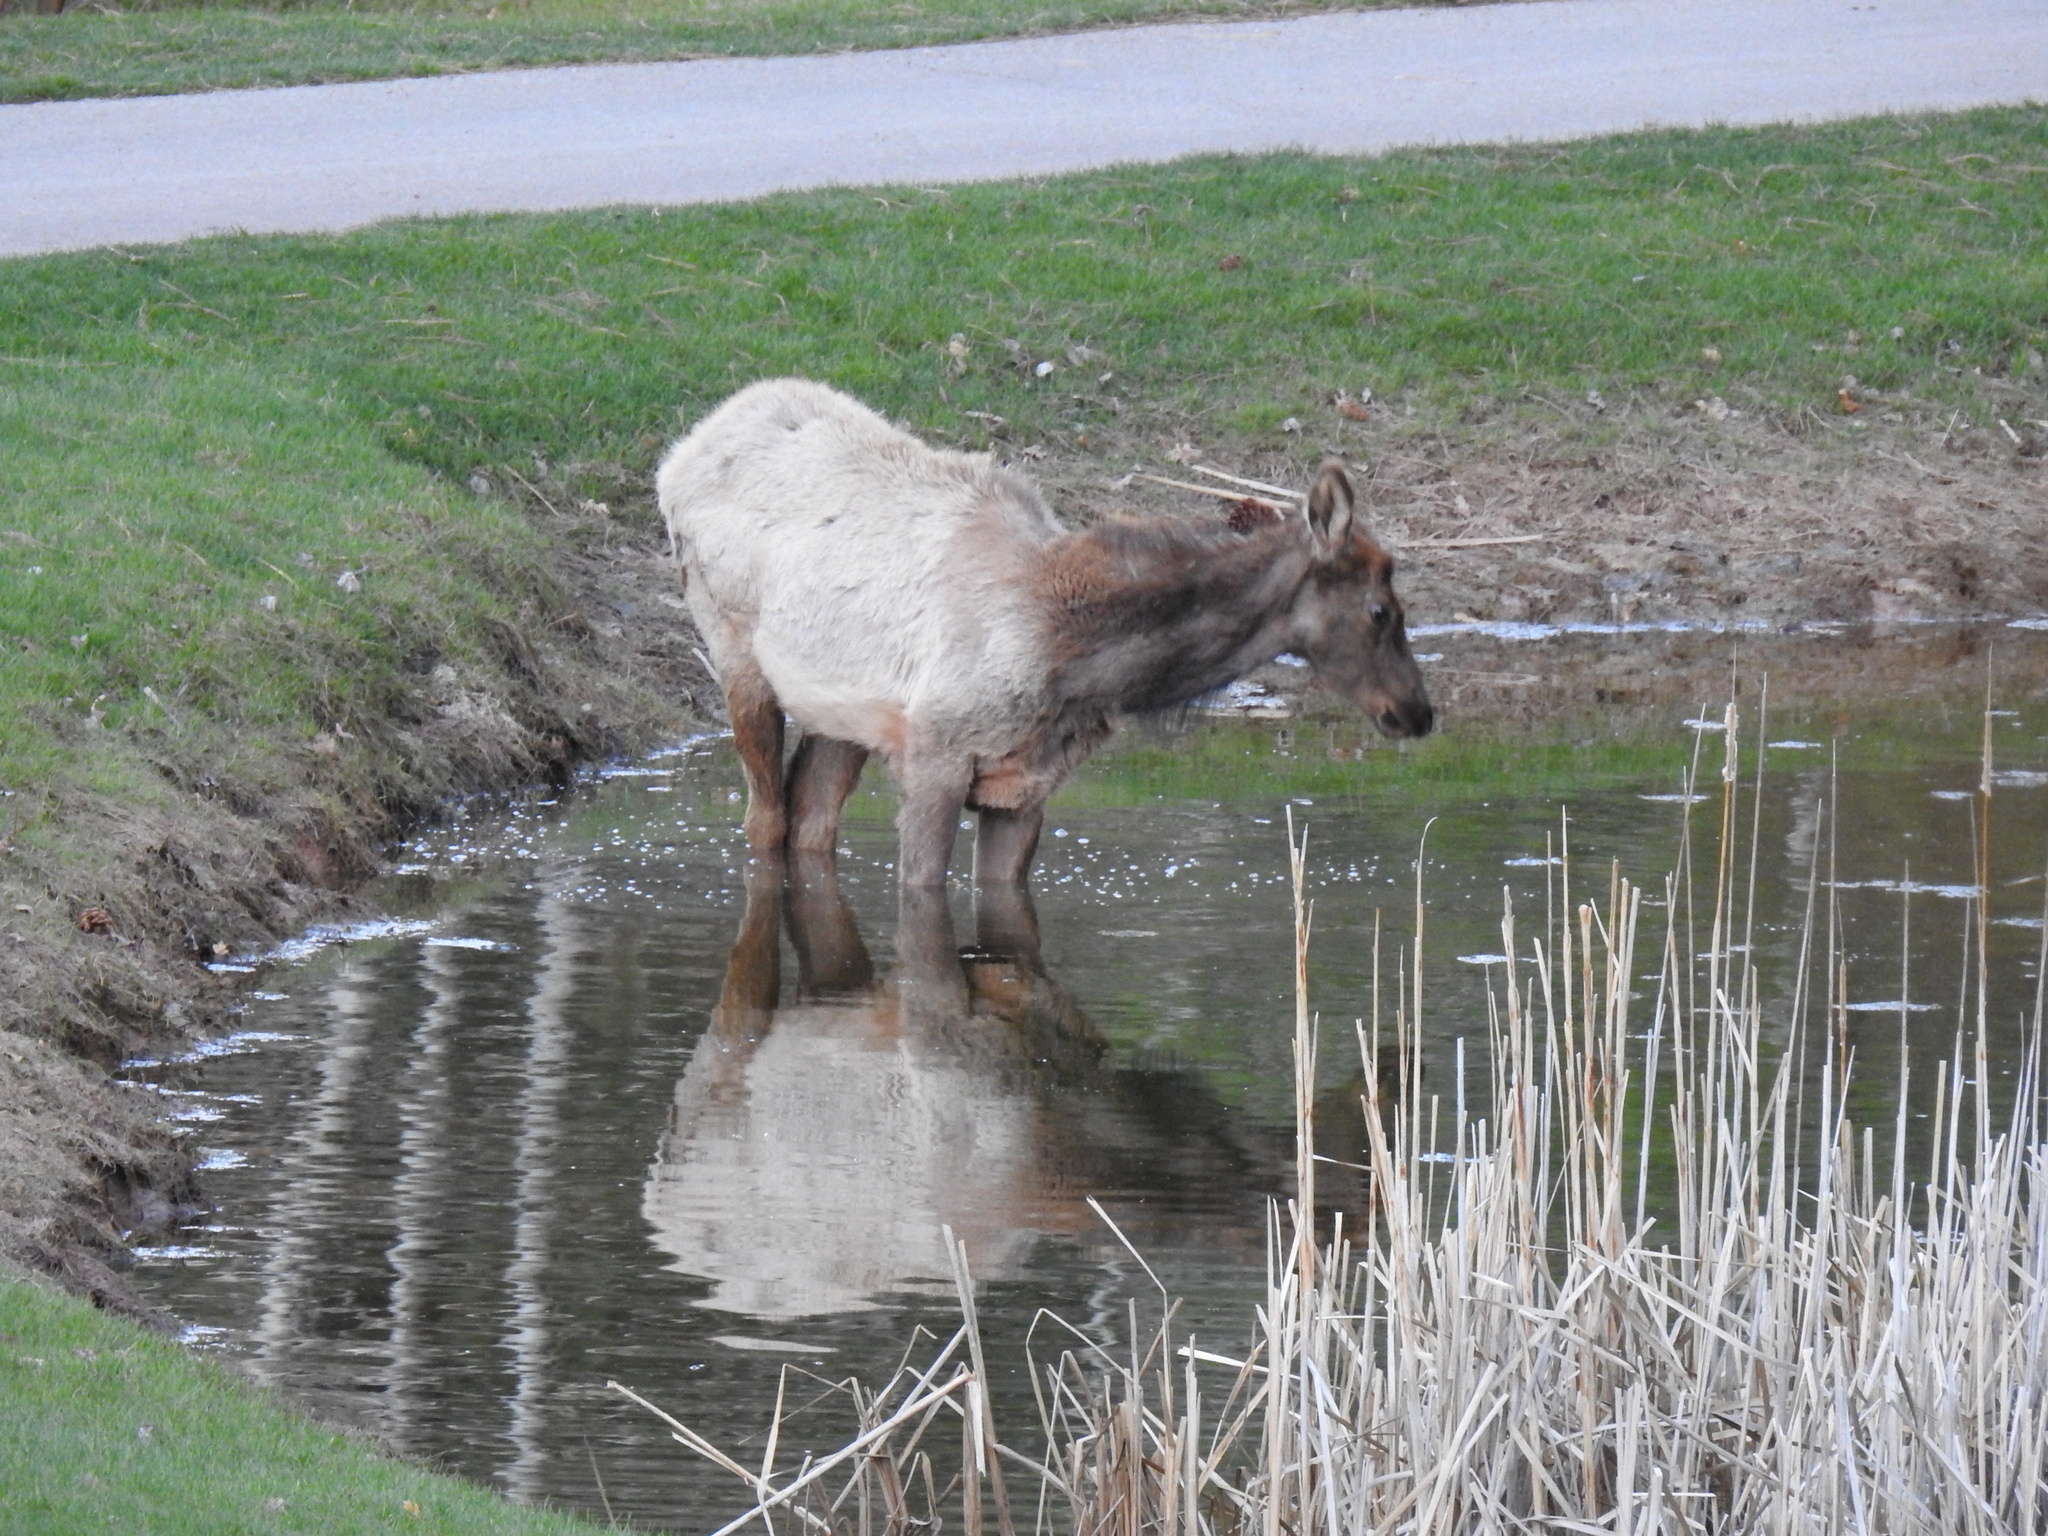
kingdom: Animalia
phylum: Chordata
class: Mammalia
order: Artiodactyla
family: Cervidae
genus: Cervus
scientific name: Cervus elaphus
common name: Red deer
